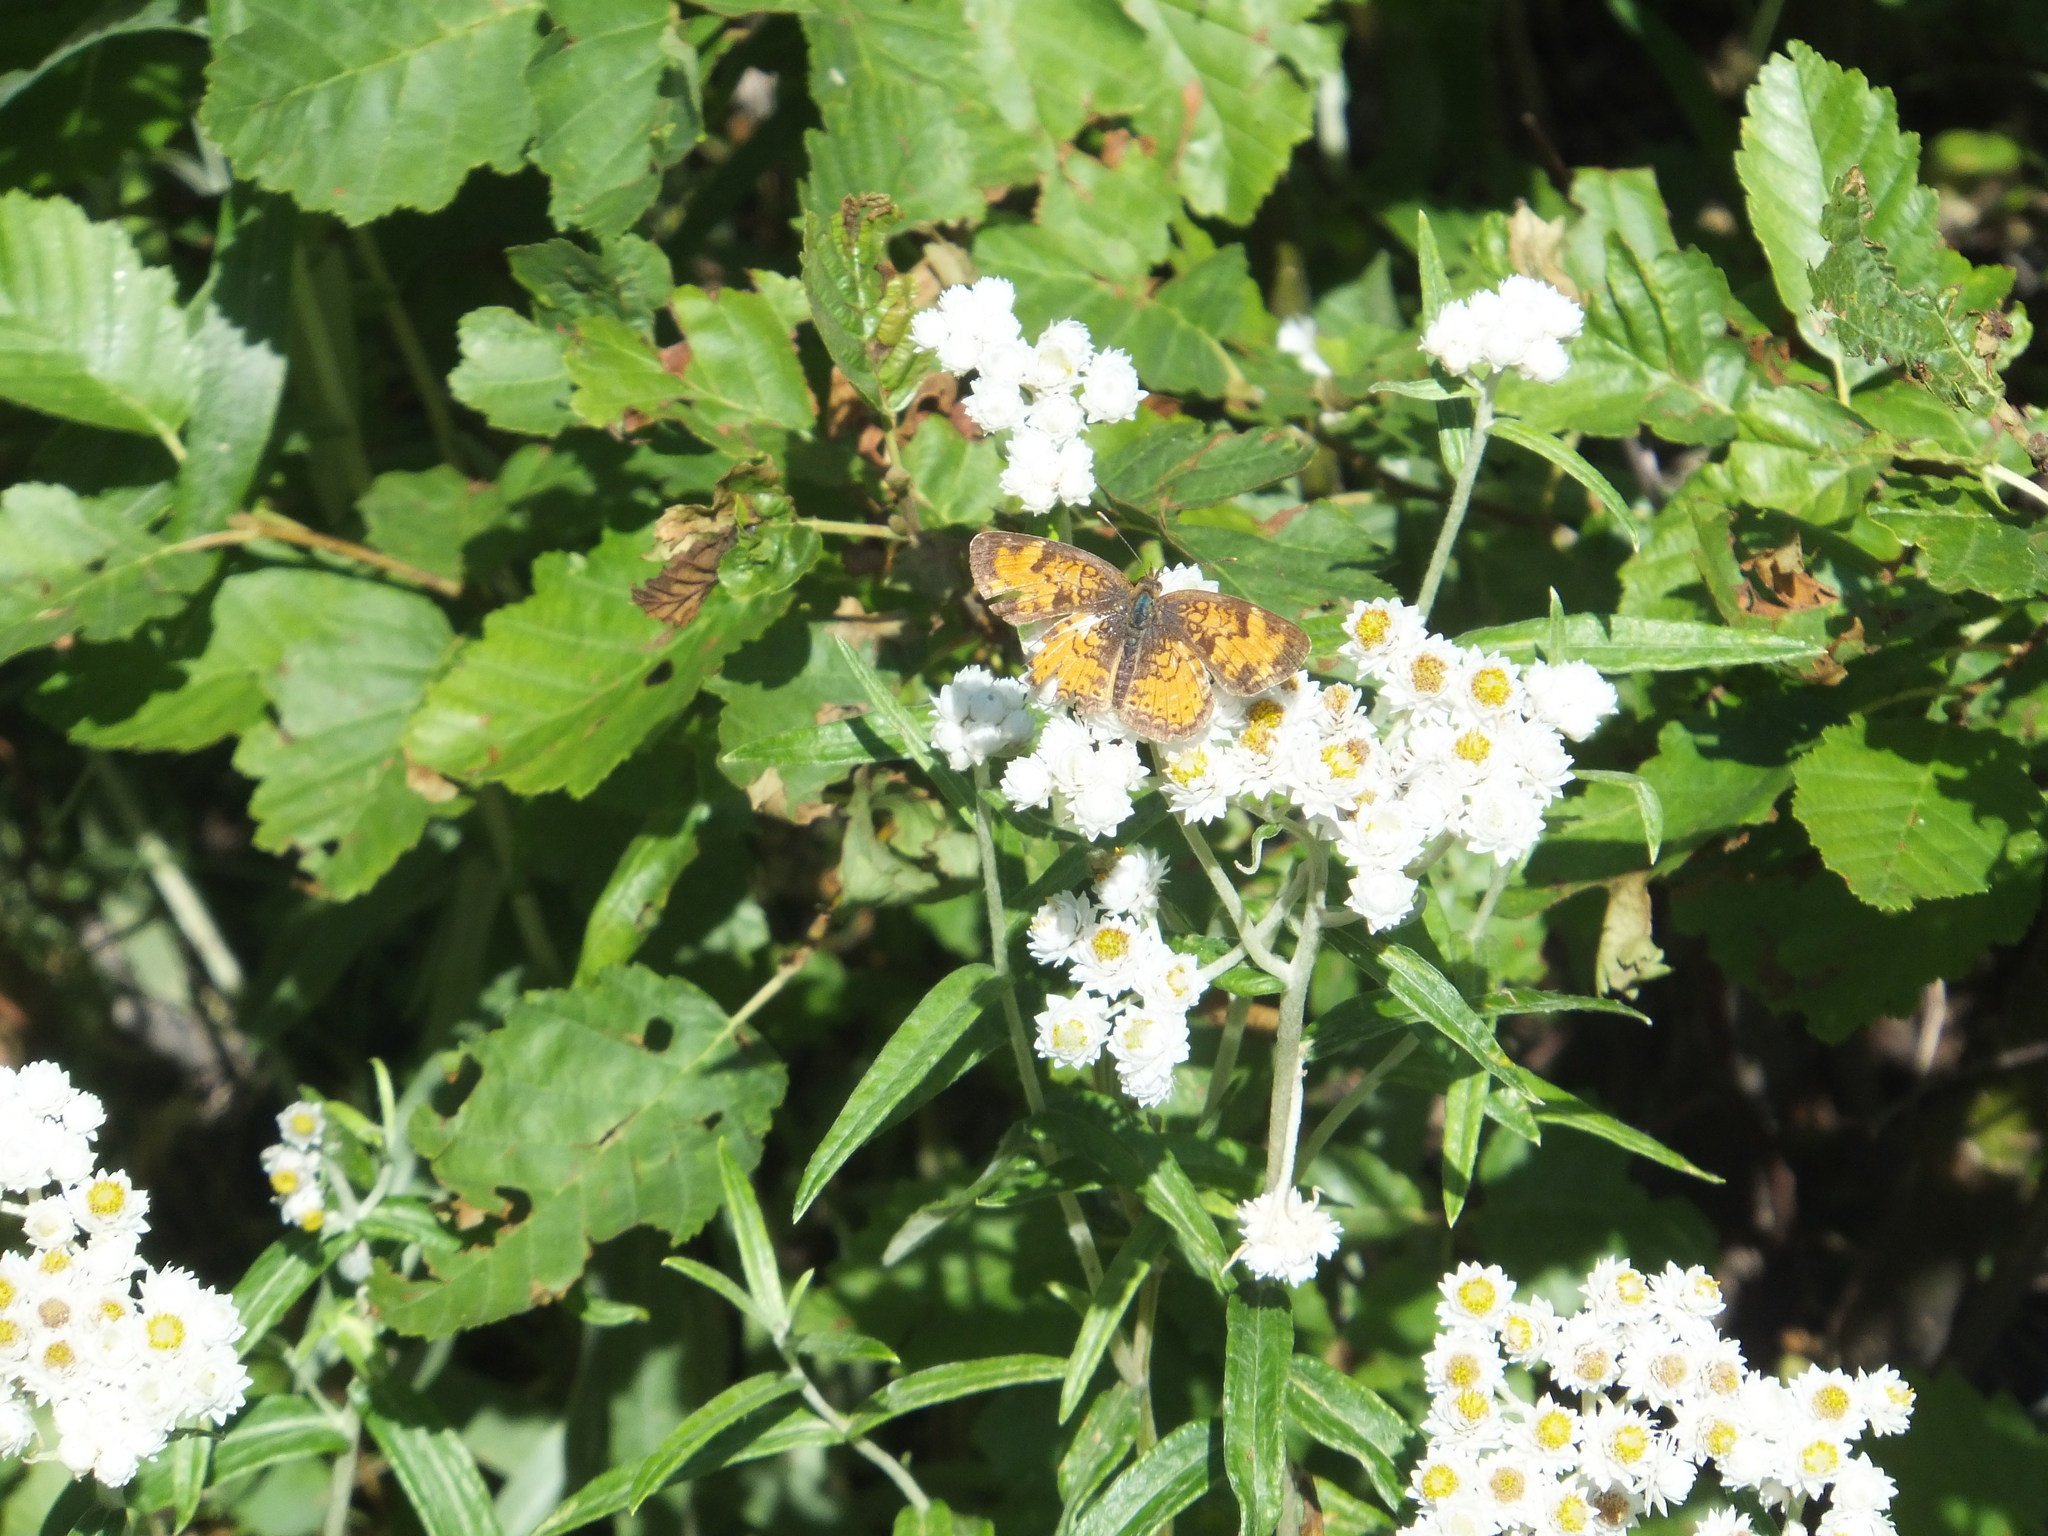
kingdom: Animalia
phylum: Arthropoda
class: Insecta
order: Lepidoptera
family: Nymphalidae
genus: Phyciodes
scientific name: Phyciodes tharos
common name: Pearl crescent
